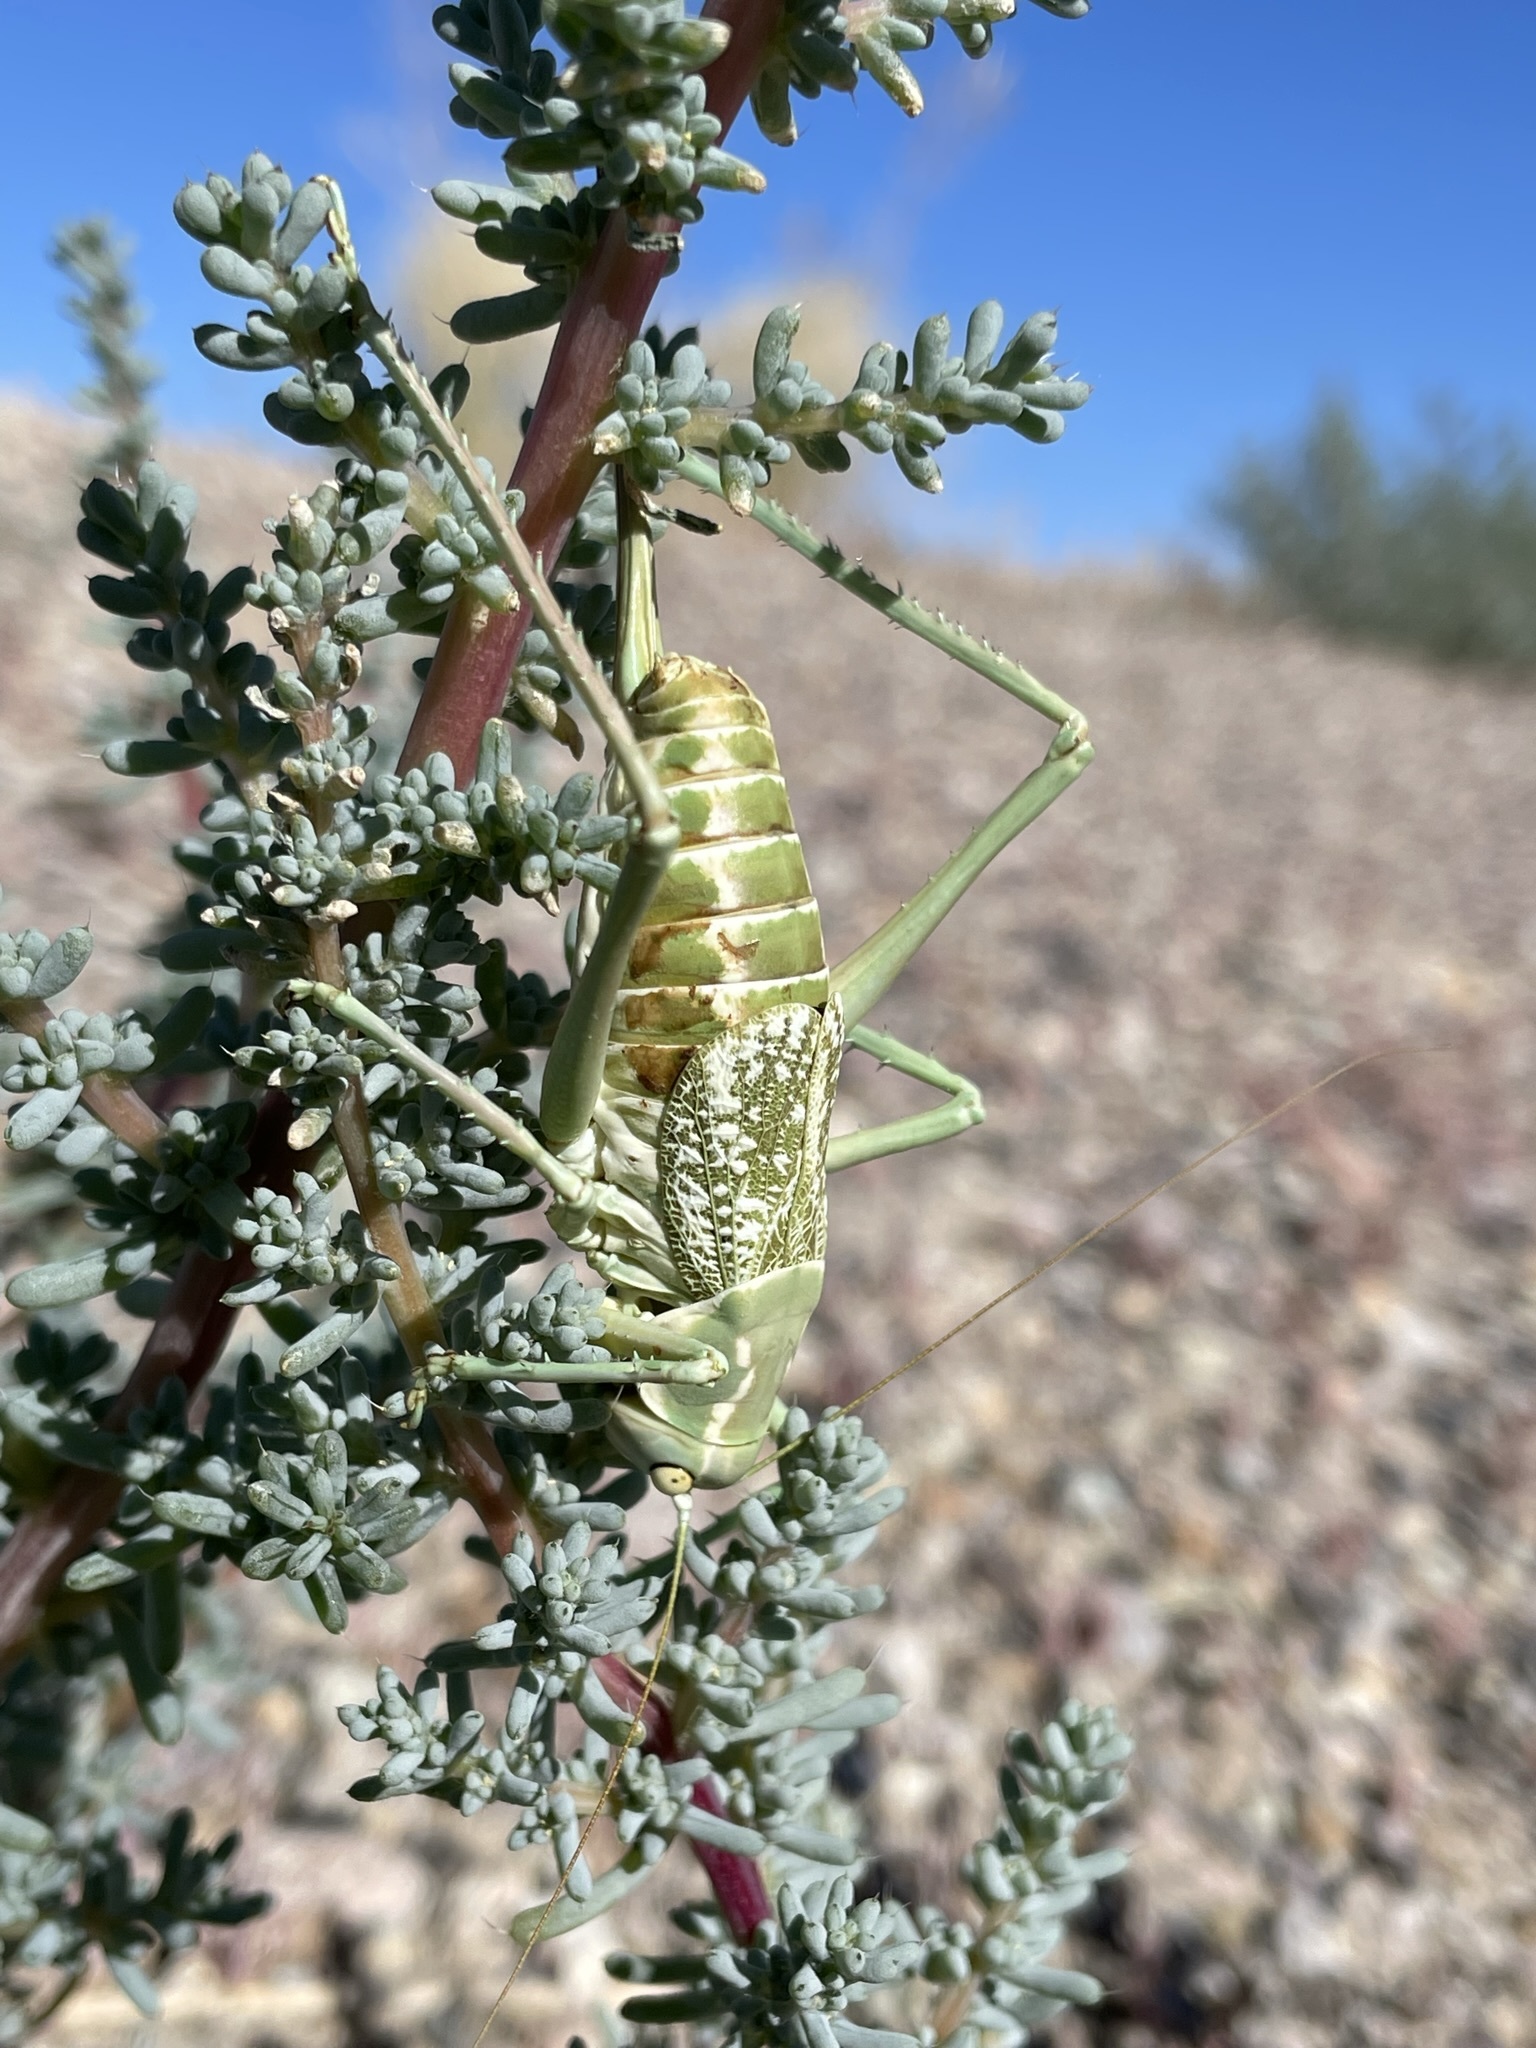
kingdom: Animalia
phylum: Arthropoda
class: Insecta
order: Orthoptera
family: Tettigoniidae
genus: Zacycloptera
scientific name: Zacycloptera atripennis
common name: Black-winged shieldback
